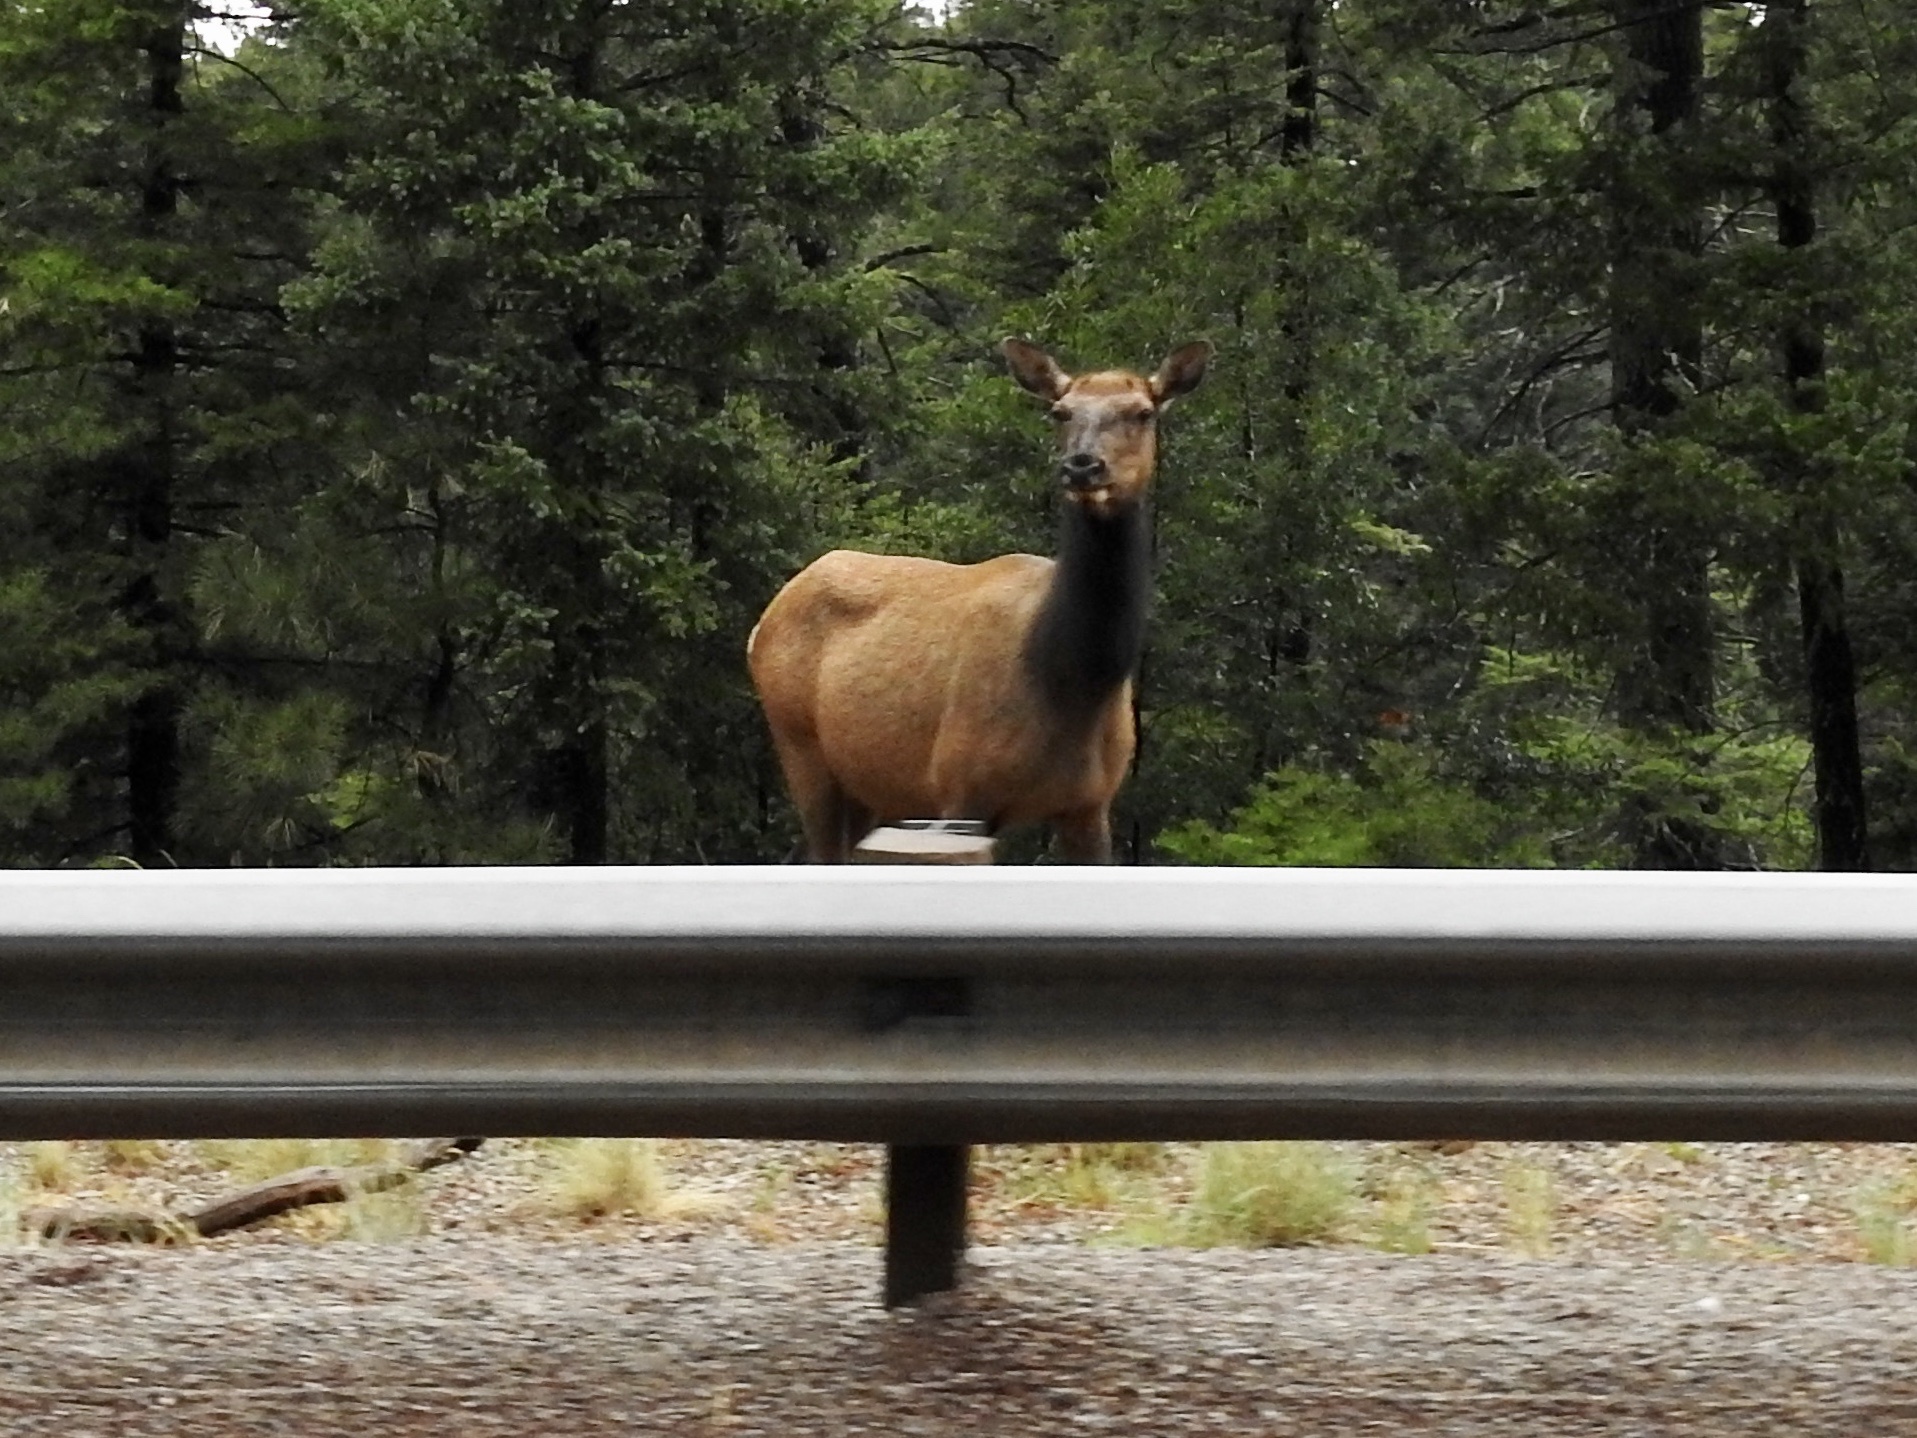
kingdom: Animalia
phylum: Chordata
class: Mammalia
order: Artiodactyla
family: Cervidae
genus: Cervus
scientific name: Cervus elaphus
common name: Red deer
